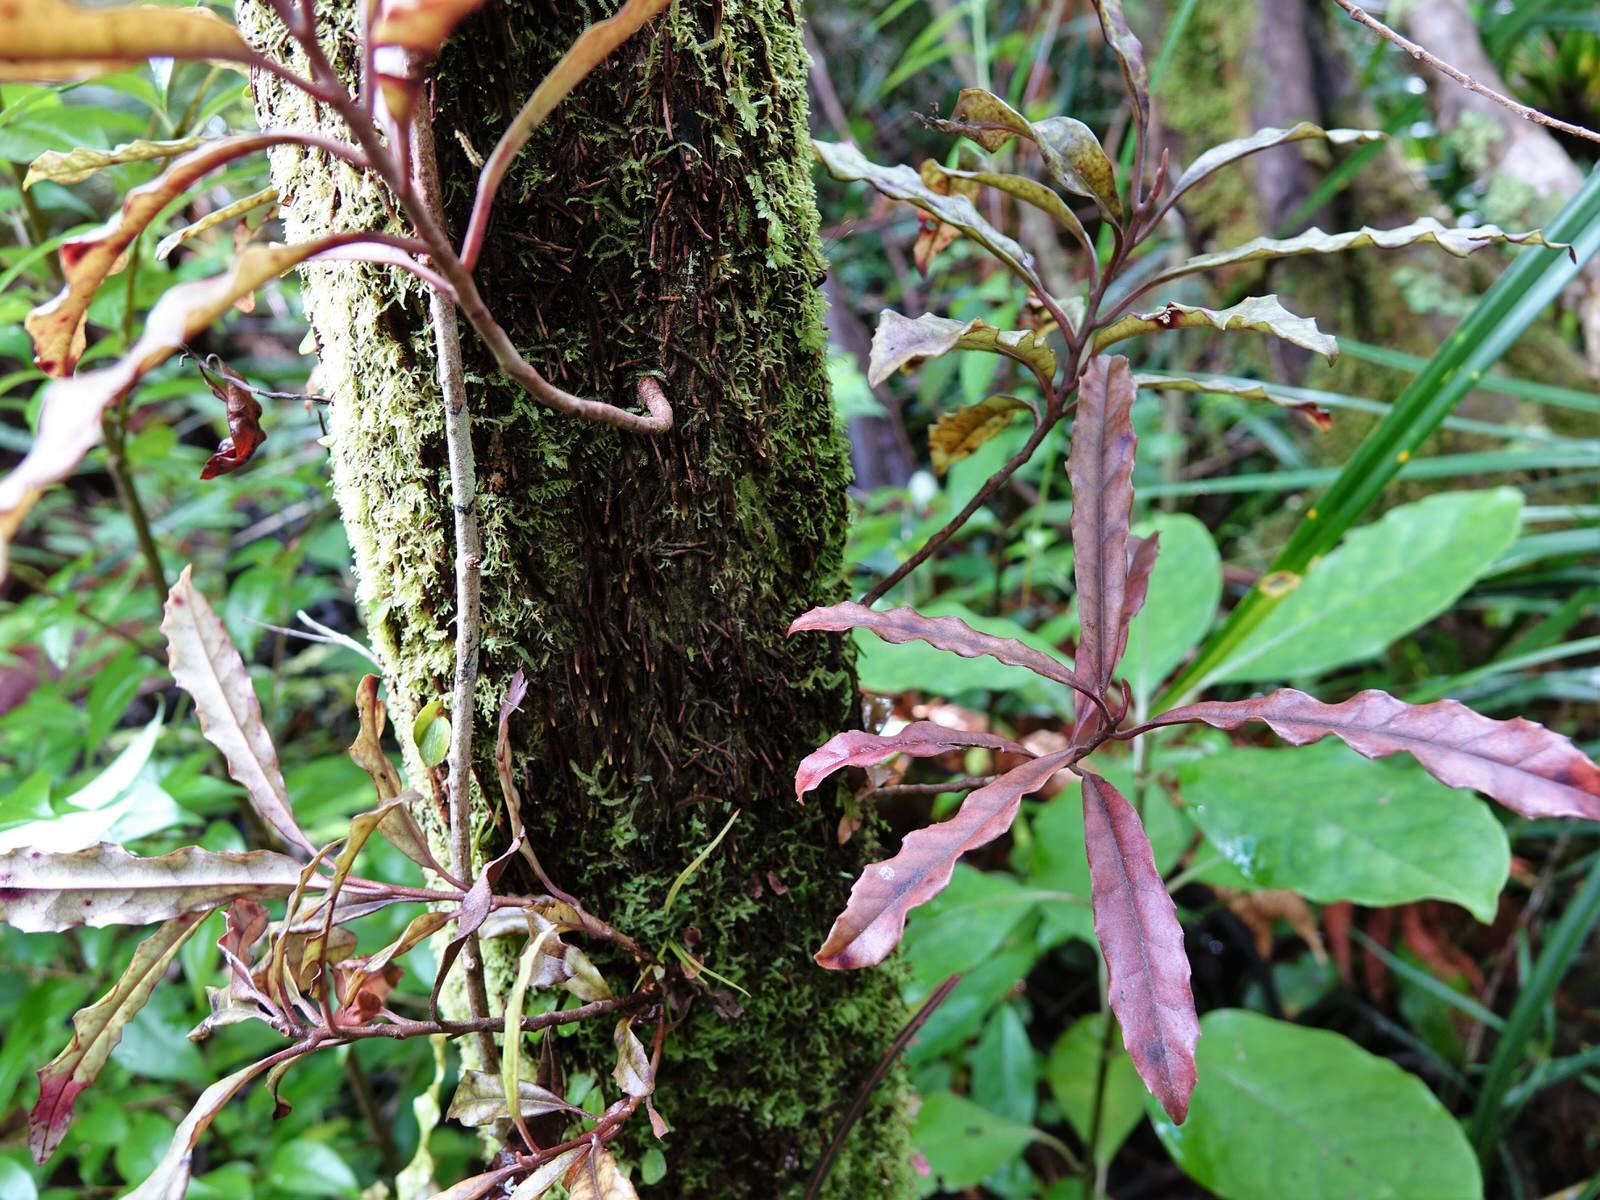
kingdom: Plantae
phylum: Tracheophyta
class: Magnoliopsida
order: Paracryphiales
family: Paracryphiaceae
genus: Quintinia
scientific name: Quintinia serrata
